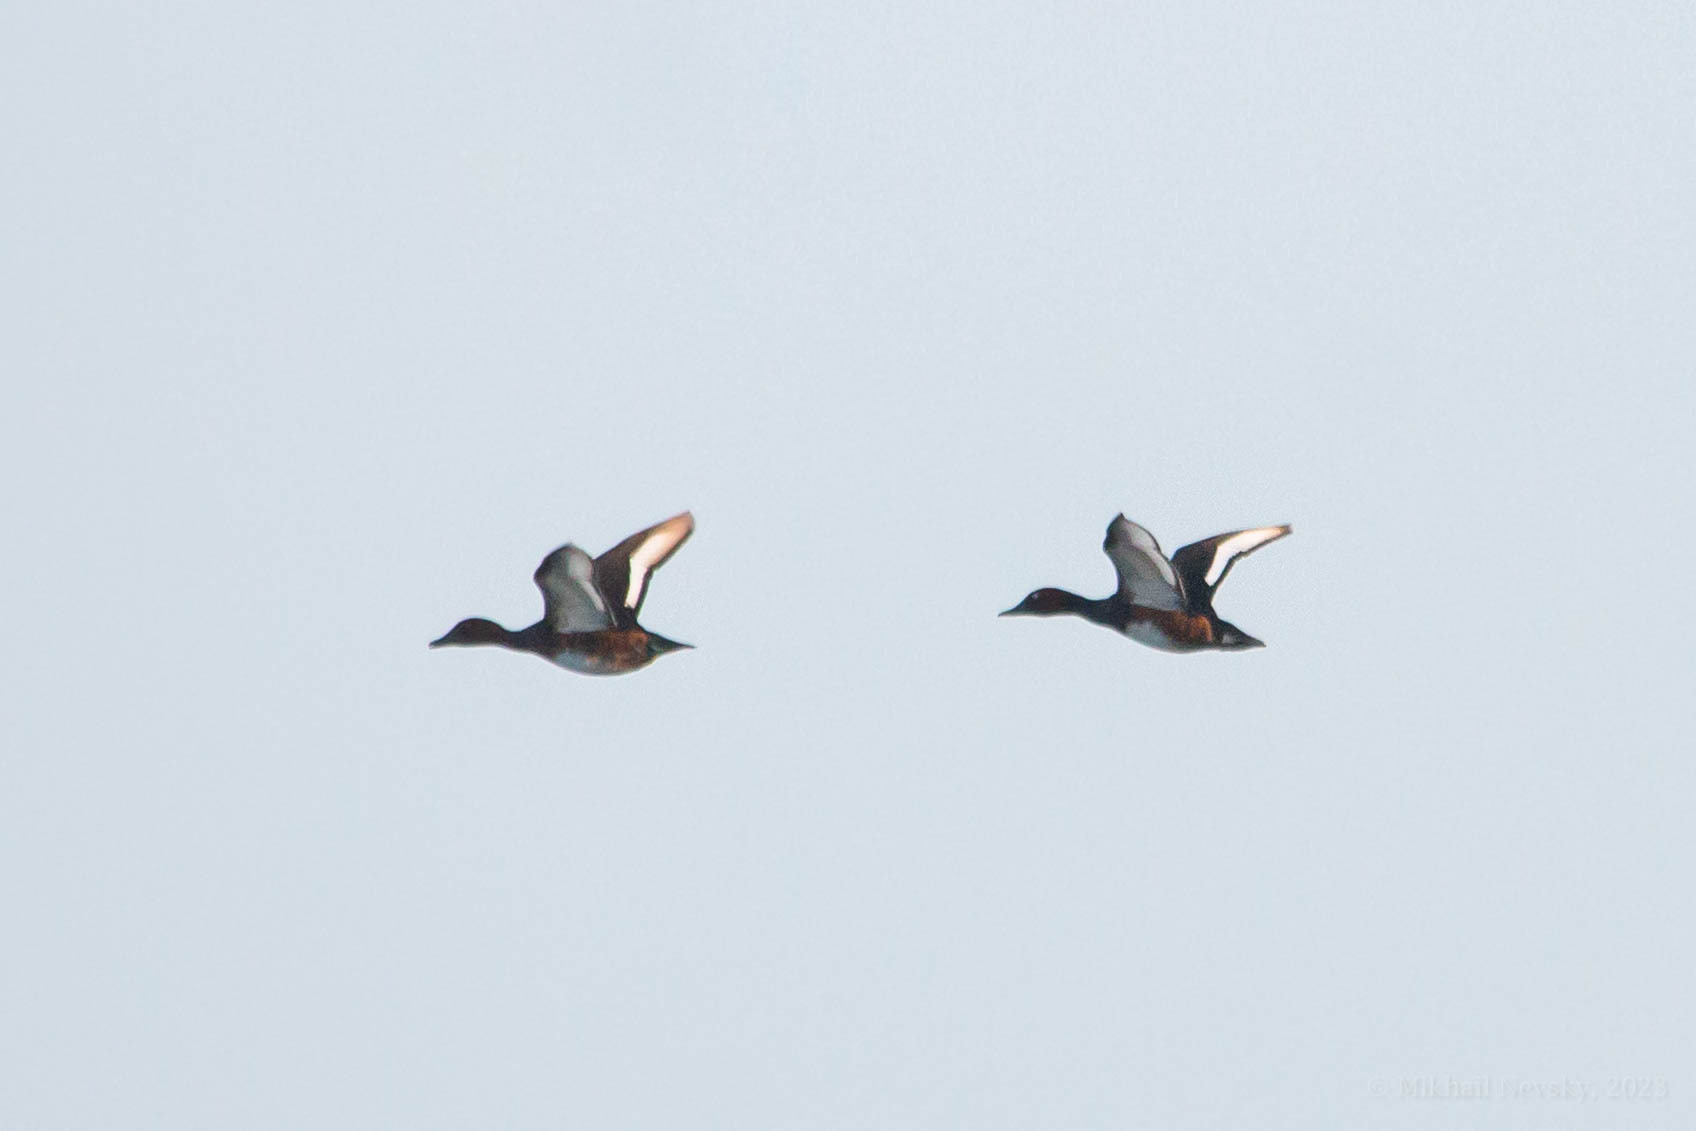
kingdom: Animalia
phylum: Chordata
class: Aves
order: Anseriformes
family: Anatidae
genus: Aythya
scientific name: Aythya nyroca
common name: Ferruginous duck
